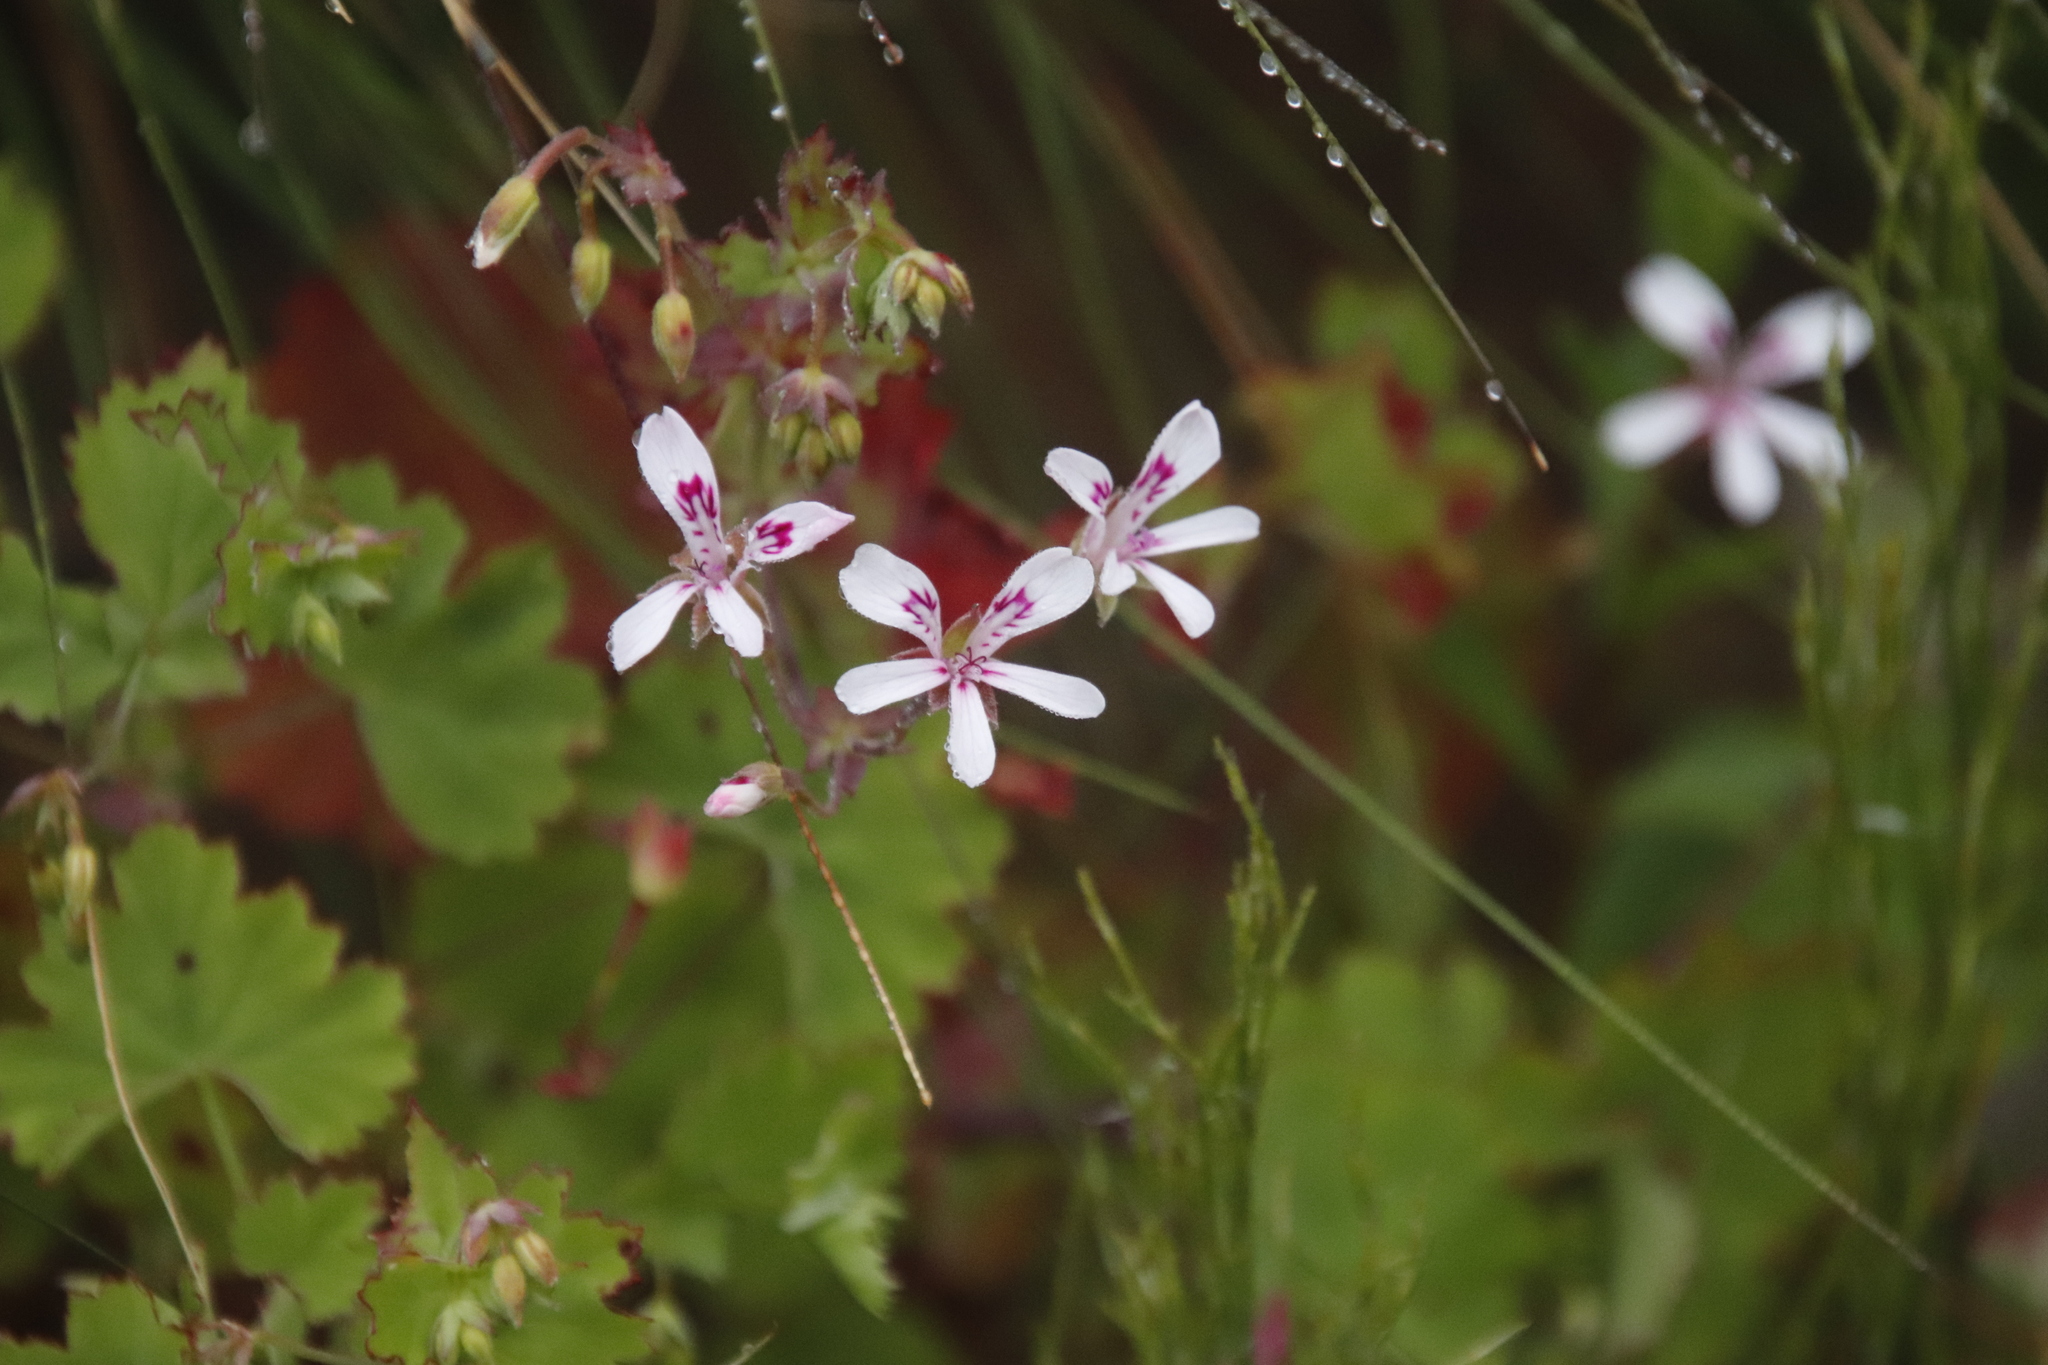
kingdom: Plantae
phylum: Tracheophyta
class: Magnoliopsida
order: Geraniales
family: Geraniaceae
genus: Pelargonium
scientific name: Pelargonium patulum
